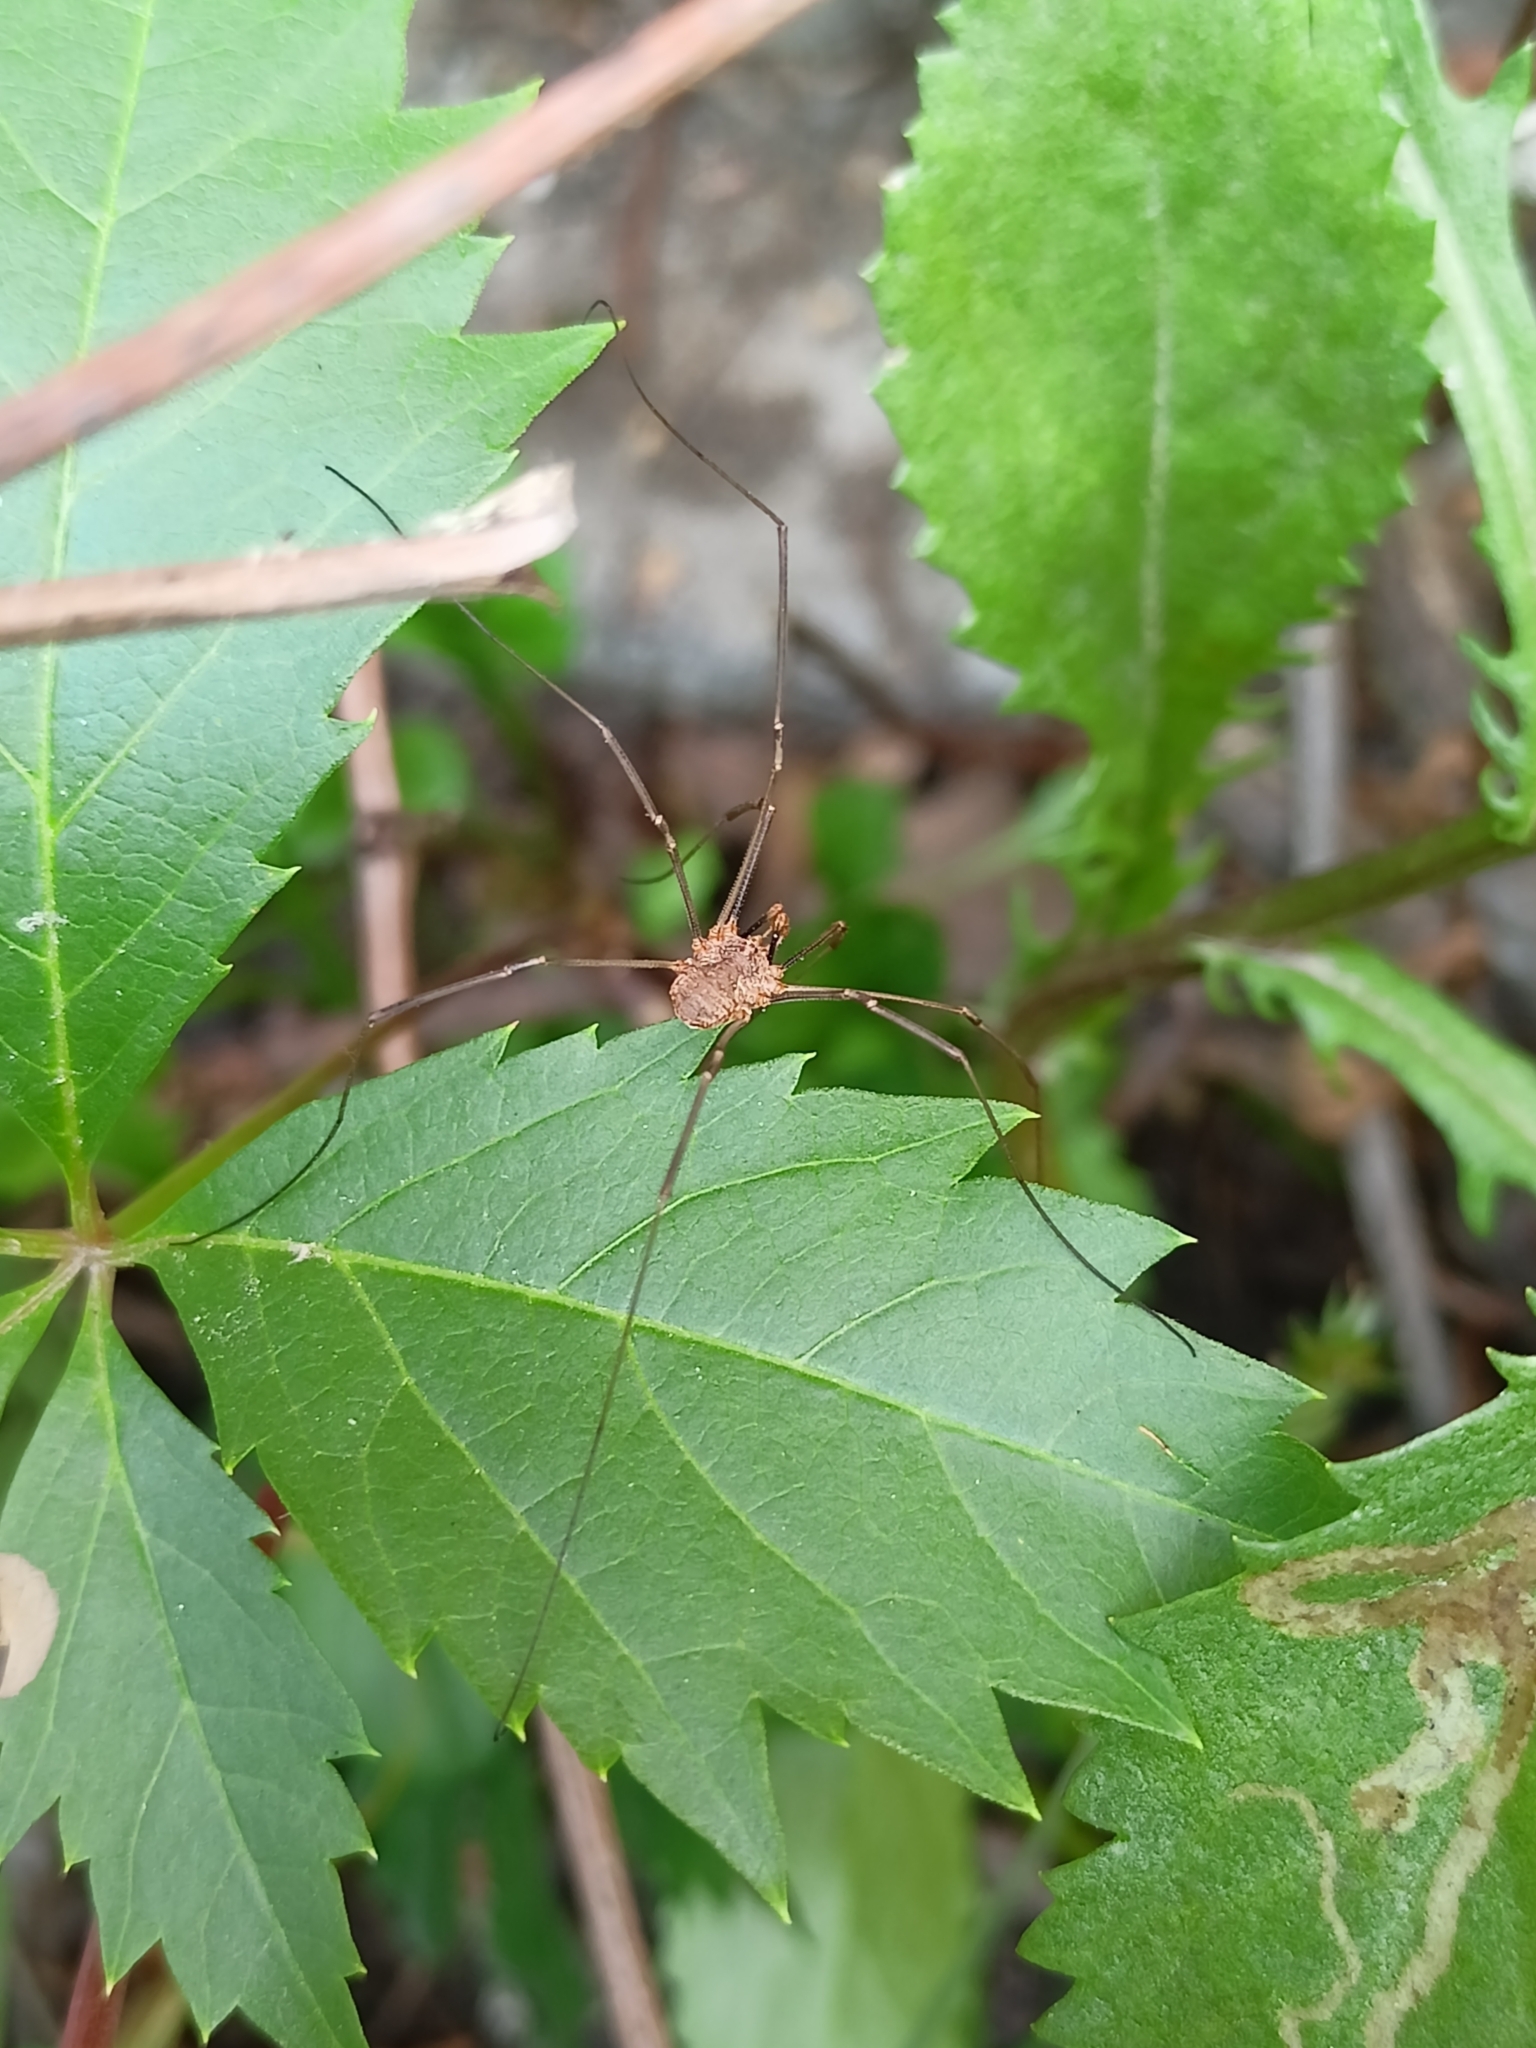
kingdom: Animalia
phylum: Arthropoda
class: Arachnida
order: Opiliones
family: Phalangiidae
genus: Phalangium
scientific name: Phalangium opilio
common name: Daddy longleg
